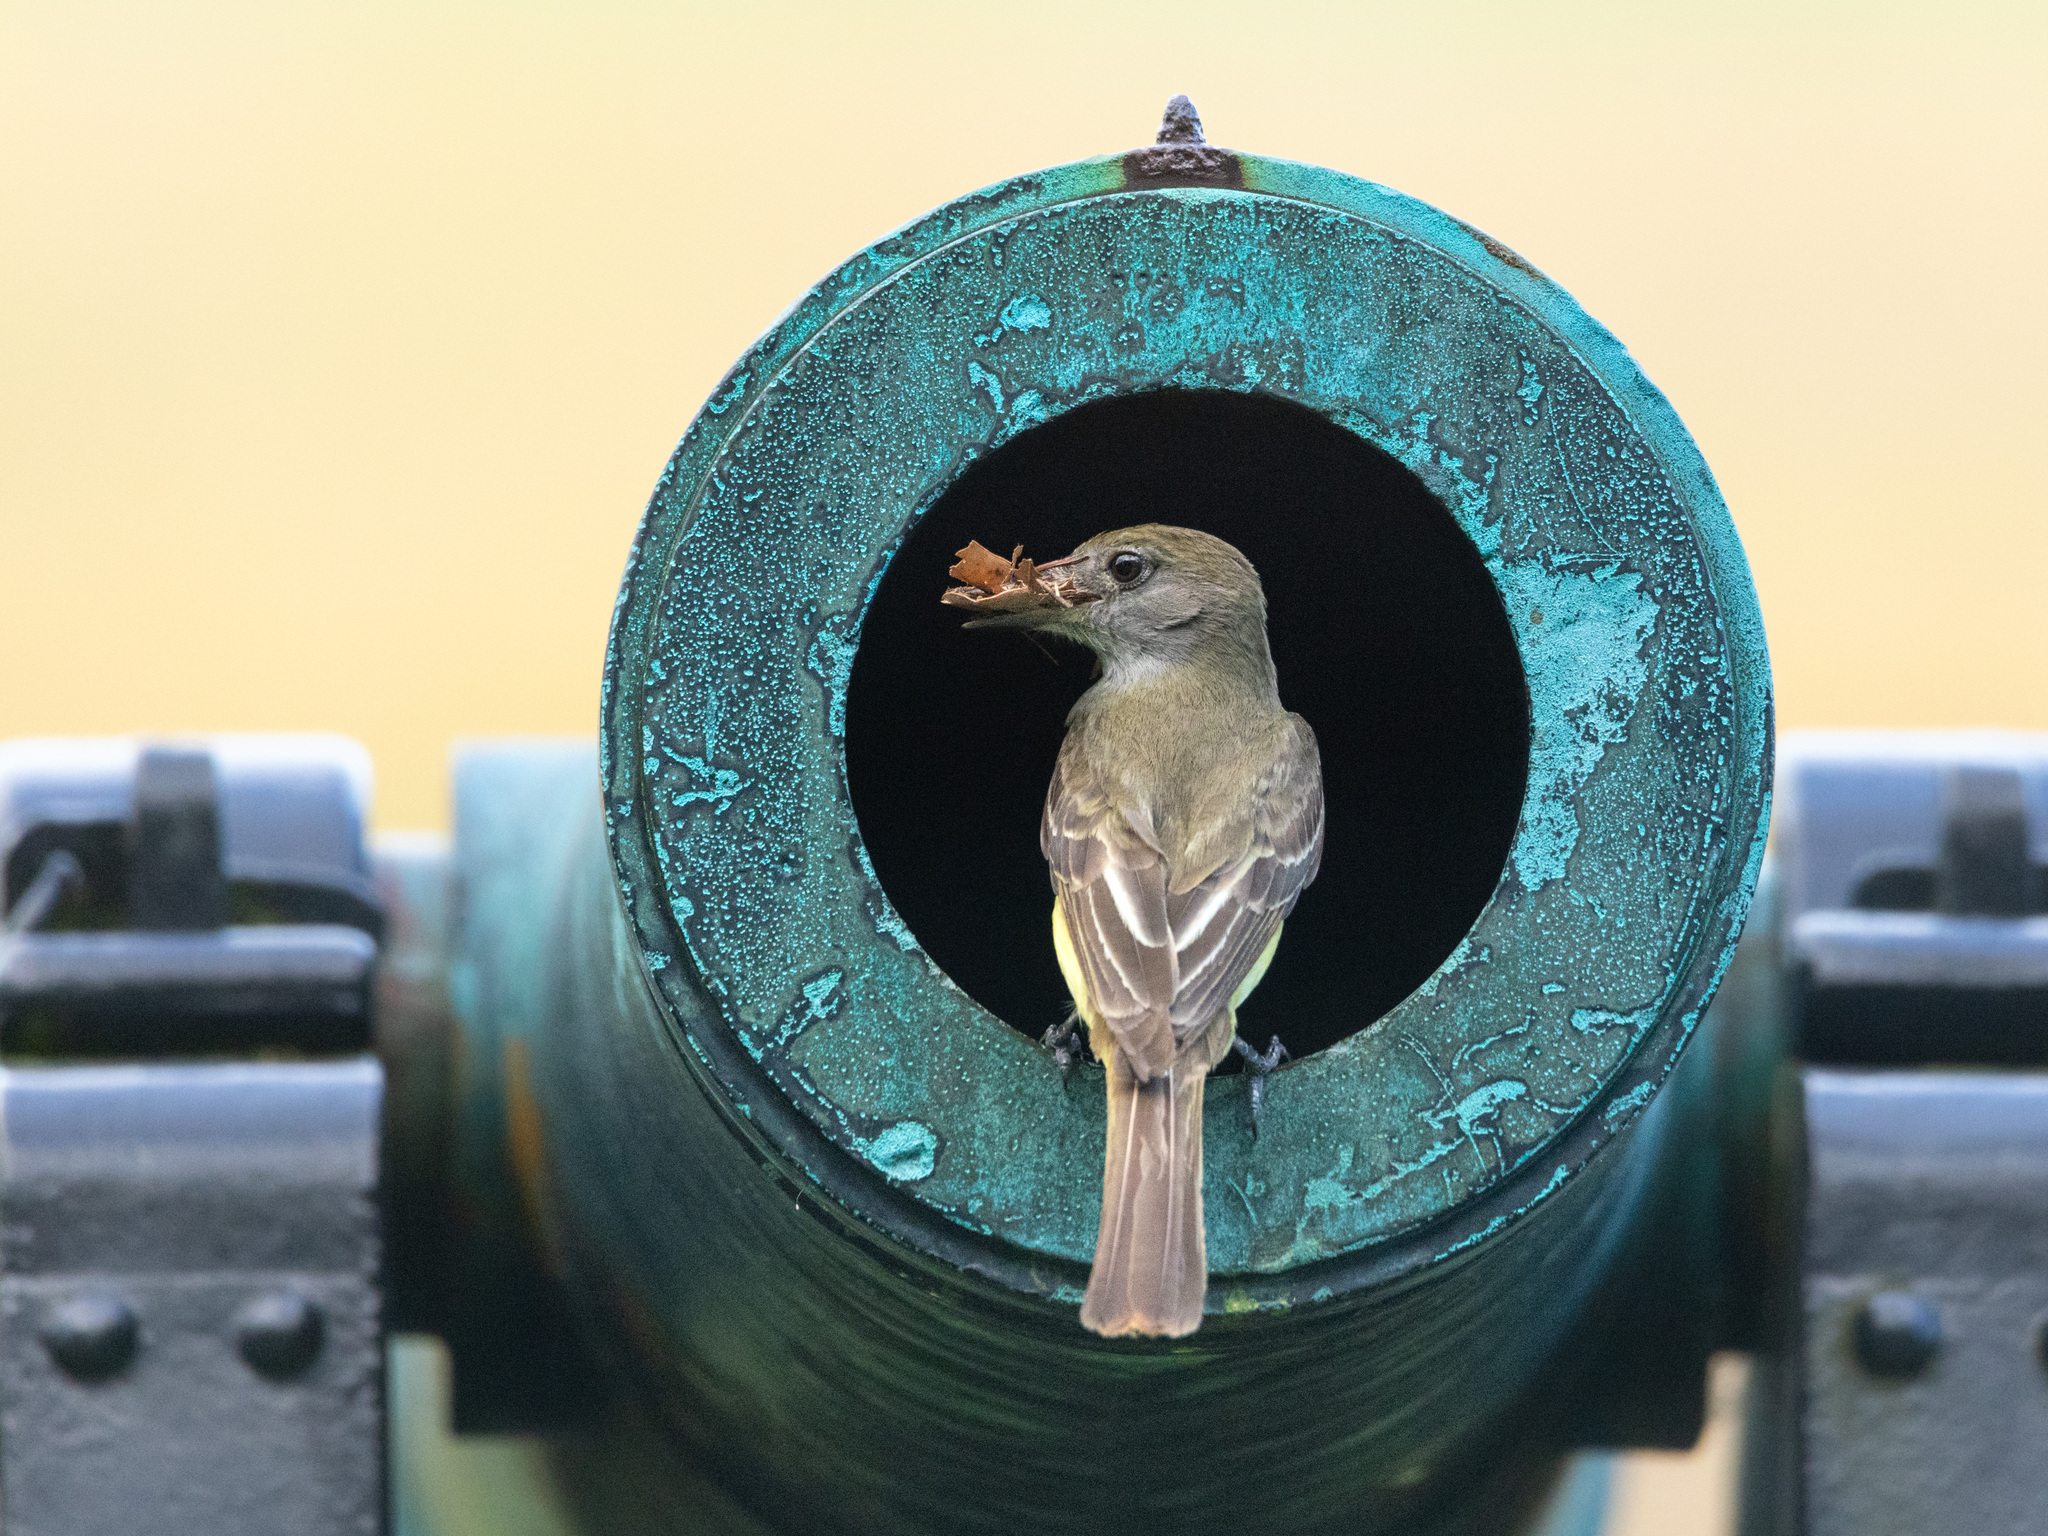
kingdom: Animalia
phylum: Chordata
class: Aves
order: Passeriformes
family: Tyrannidae
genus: Myiarchus
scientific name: Myiarchus crinitus
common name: Great crested flycatcher
